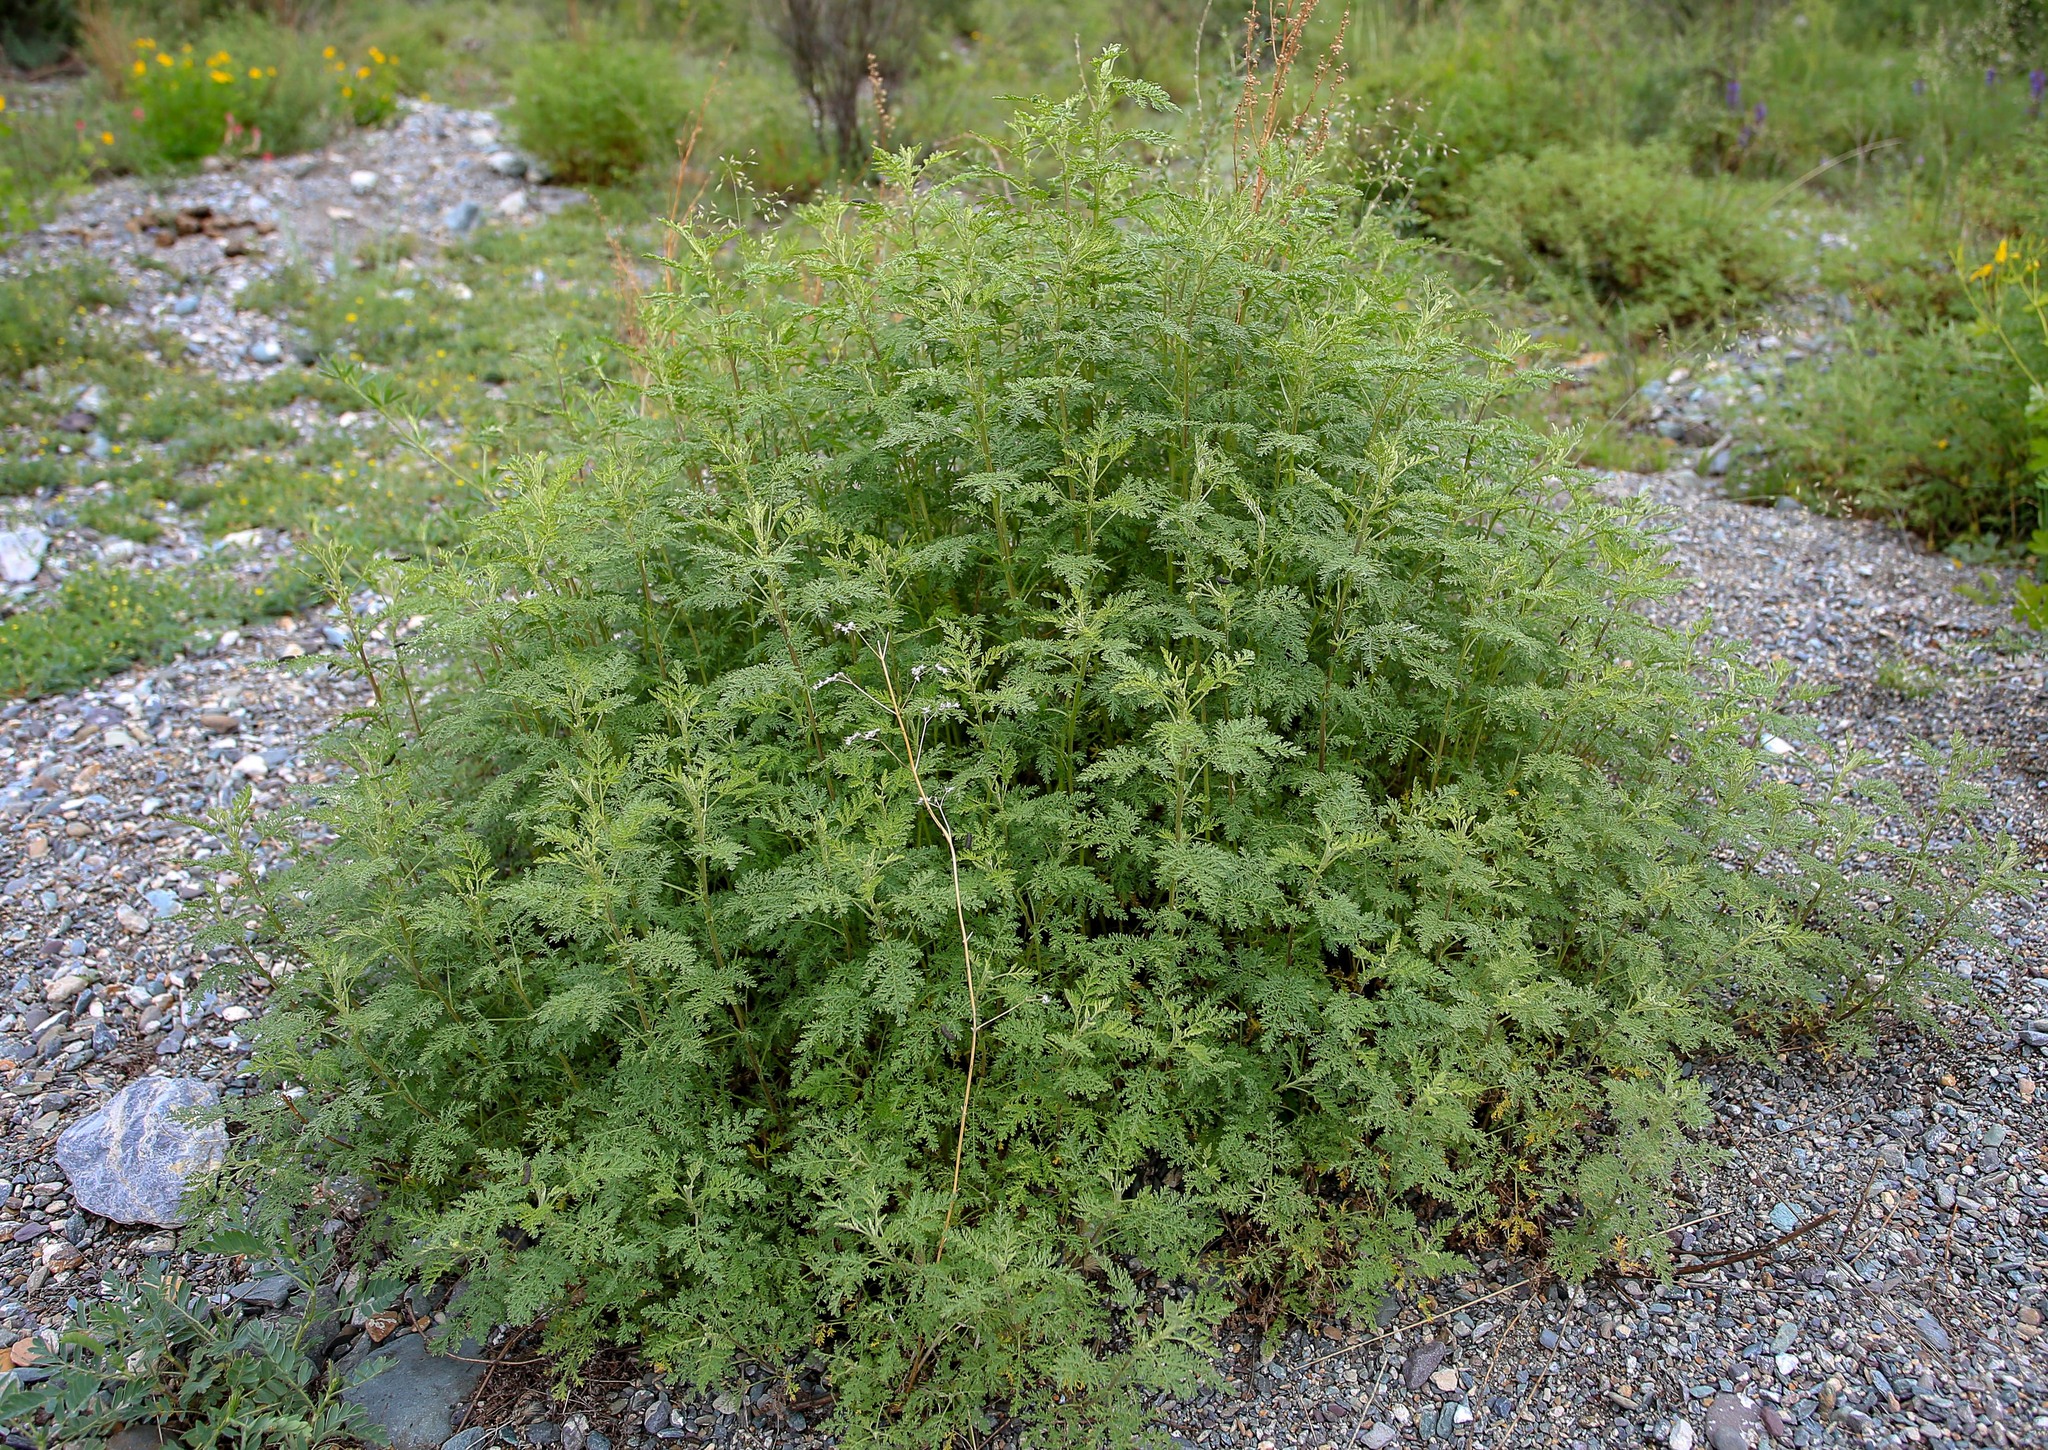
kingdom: Plantae
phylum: Tracheophyta
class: Magnoliopsida
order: Asterales
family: Asteraceae
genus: Artemisia
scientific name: Artemisia gmelinii
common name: Gmelin's wormwood
